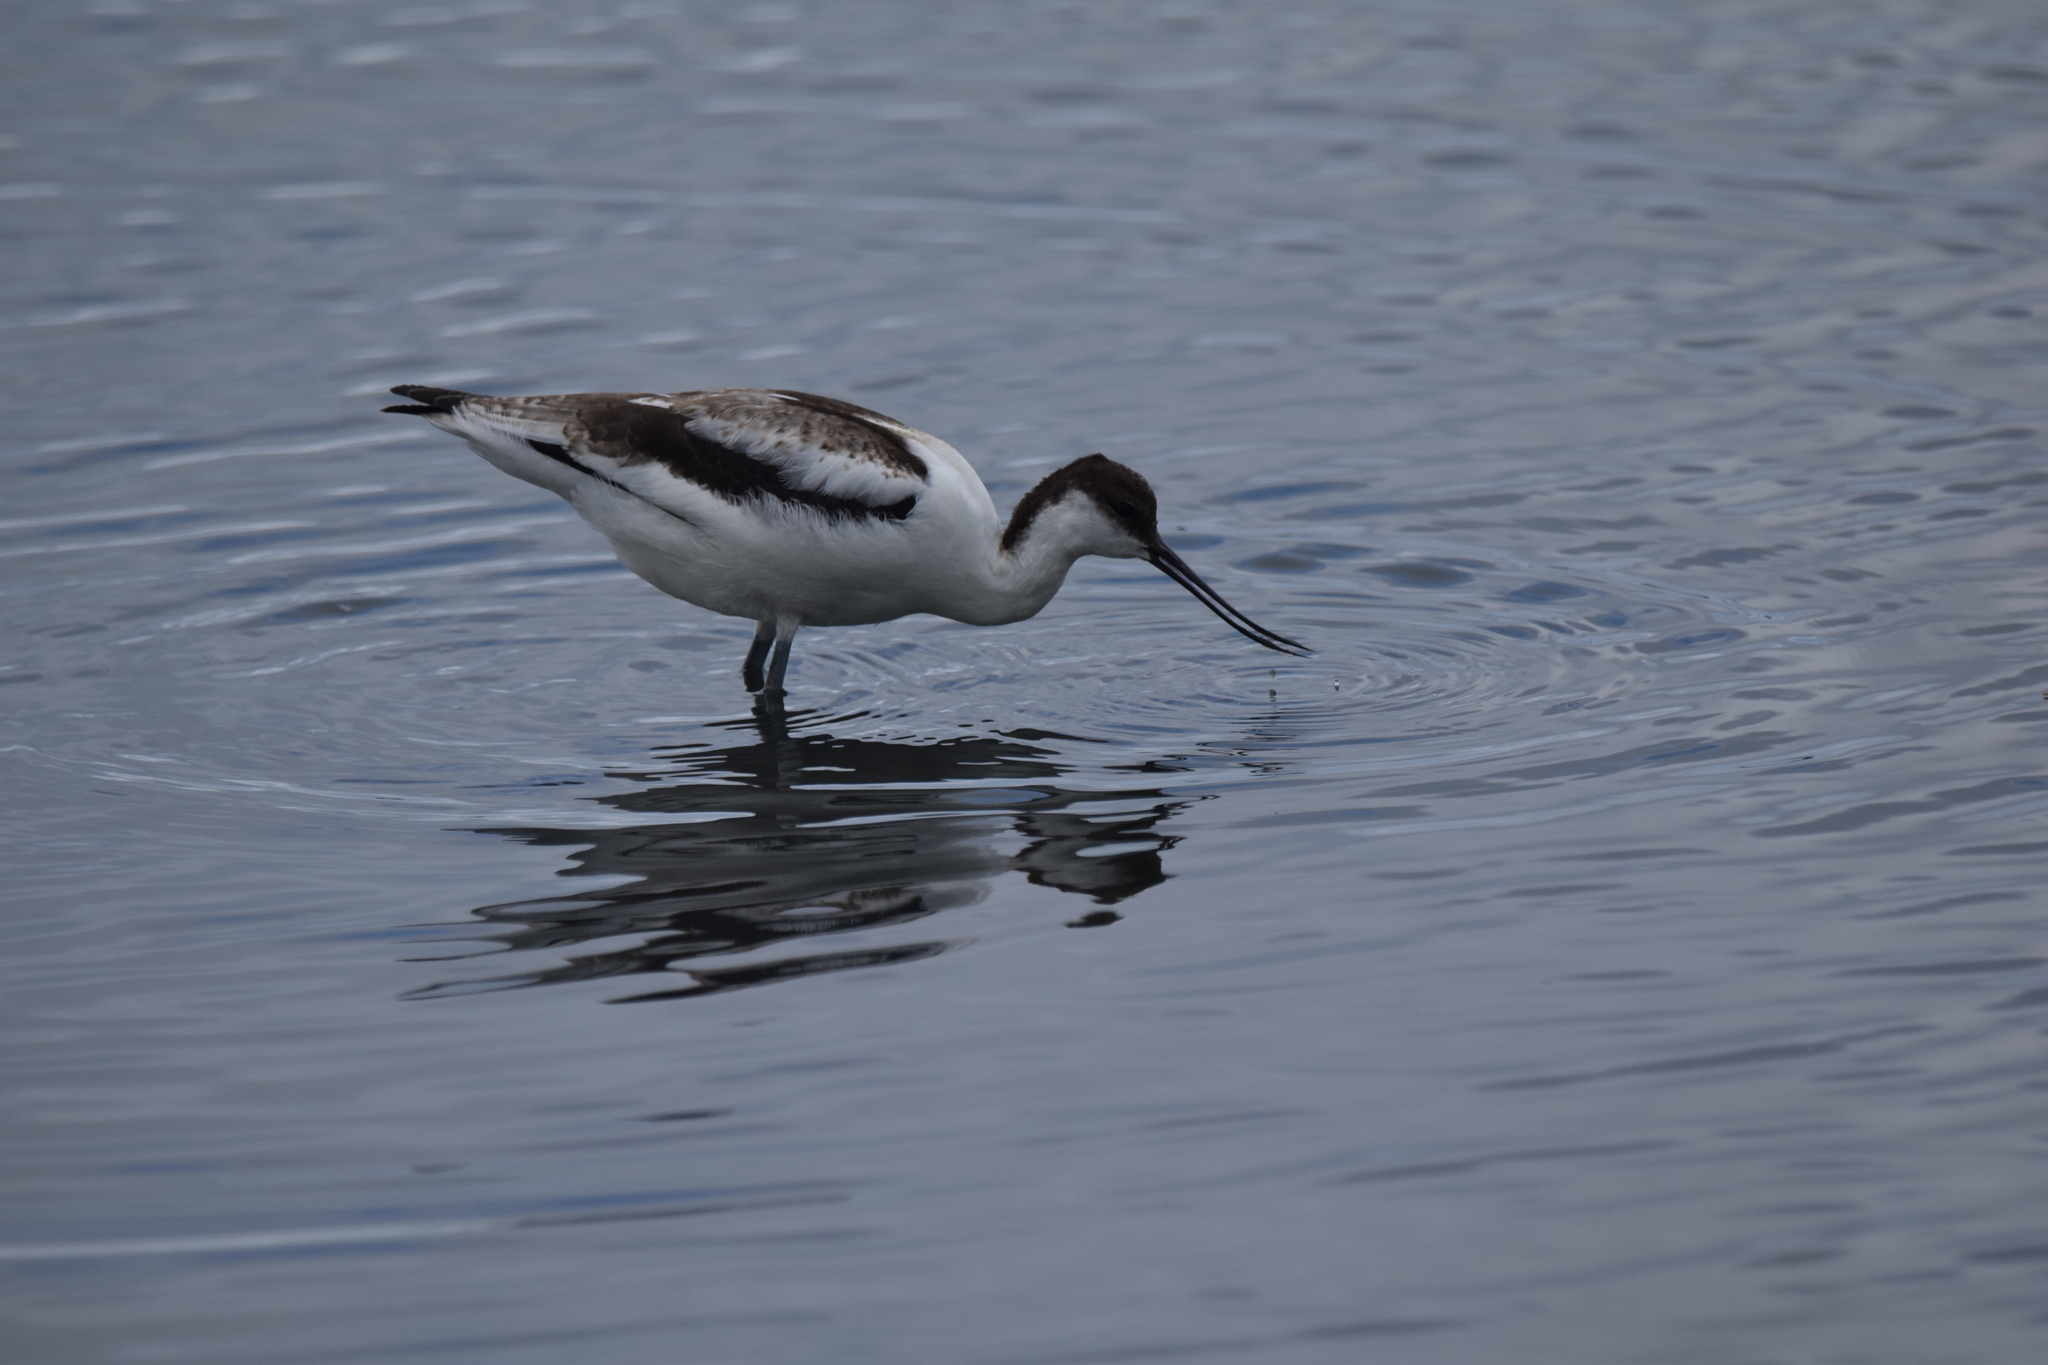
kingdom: Animalia
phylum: Chordata
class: Aves
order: Charadriiformes
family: Recurvirostridae
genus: Recurvirostra
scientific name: Recurvirostra avosetta
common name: Pied avocet
